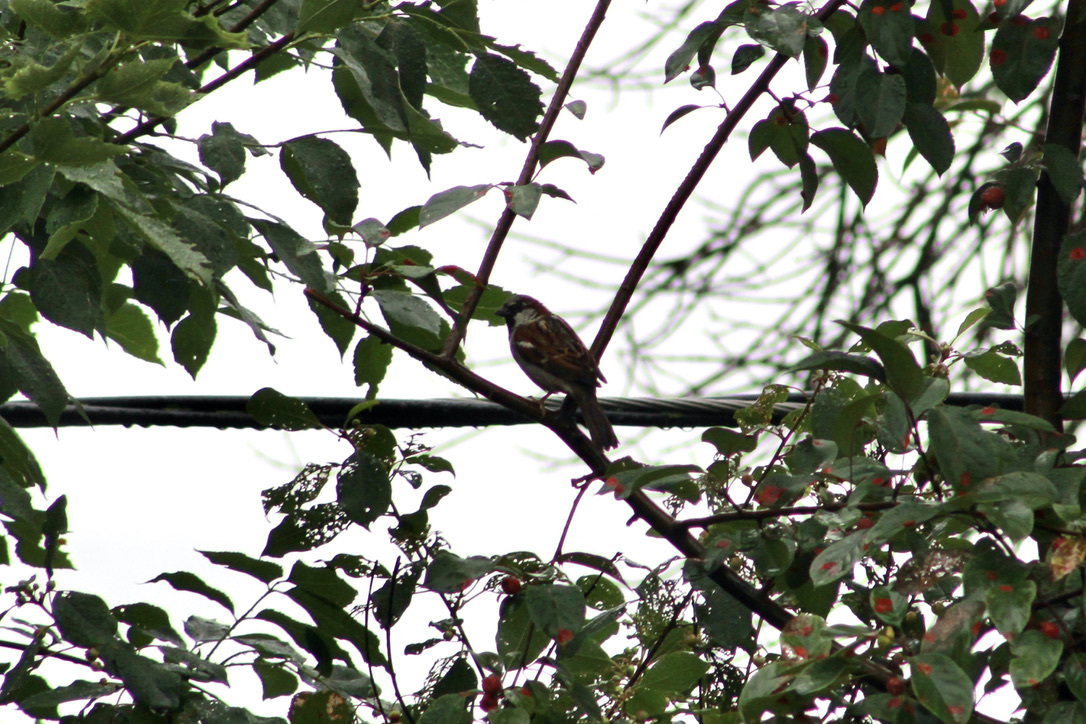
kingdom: Animalia
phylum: Chordata
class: Aves
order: Passeriformes
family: Passeridae
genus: Passer
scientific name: Passer domesticus
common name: House sparrow
